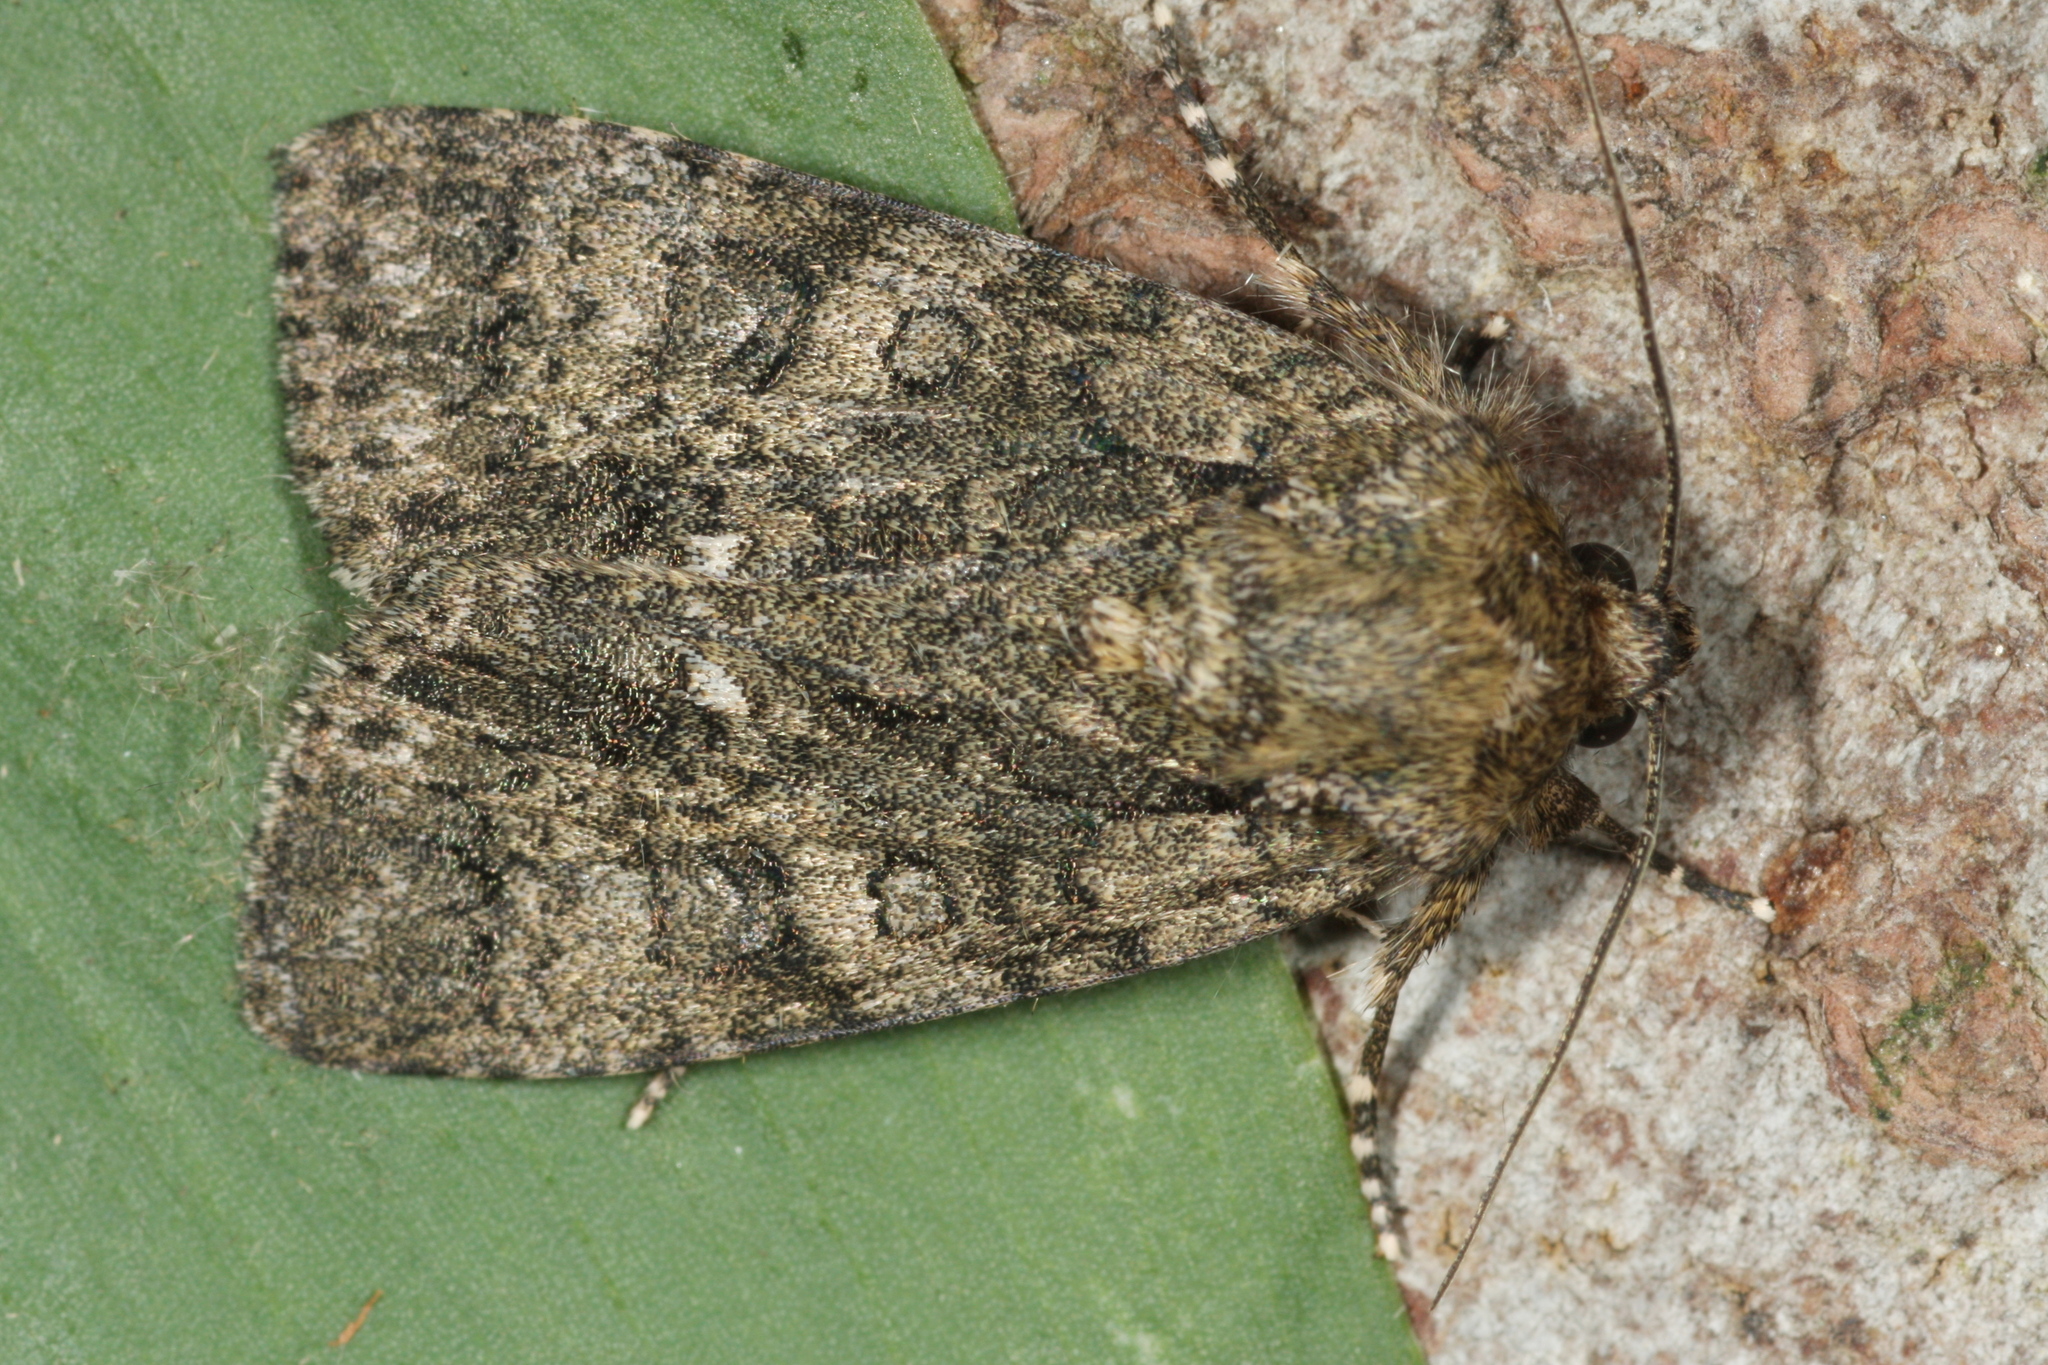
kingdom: Animalia
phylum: Arthropoda
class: Insecta
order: Lepidoptera
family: Noctuidae
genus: Acronicta
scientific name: Acronicta rumicis
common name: Knot grass
